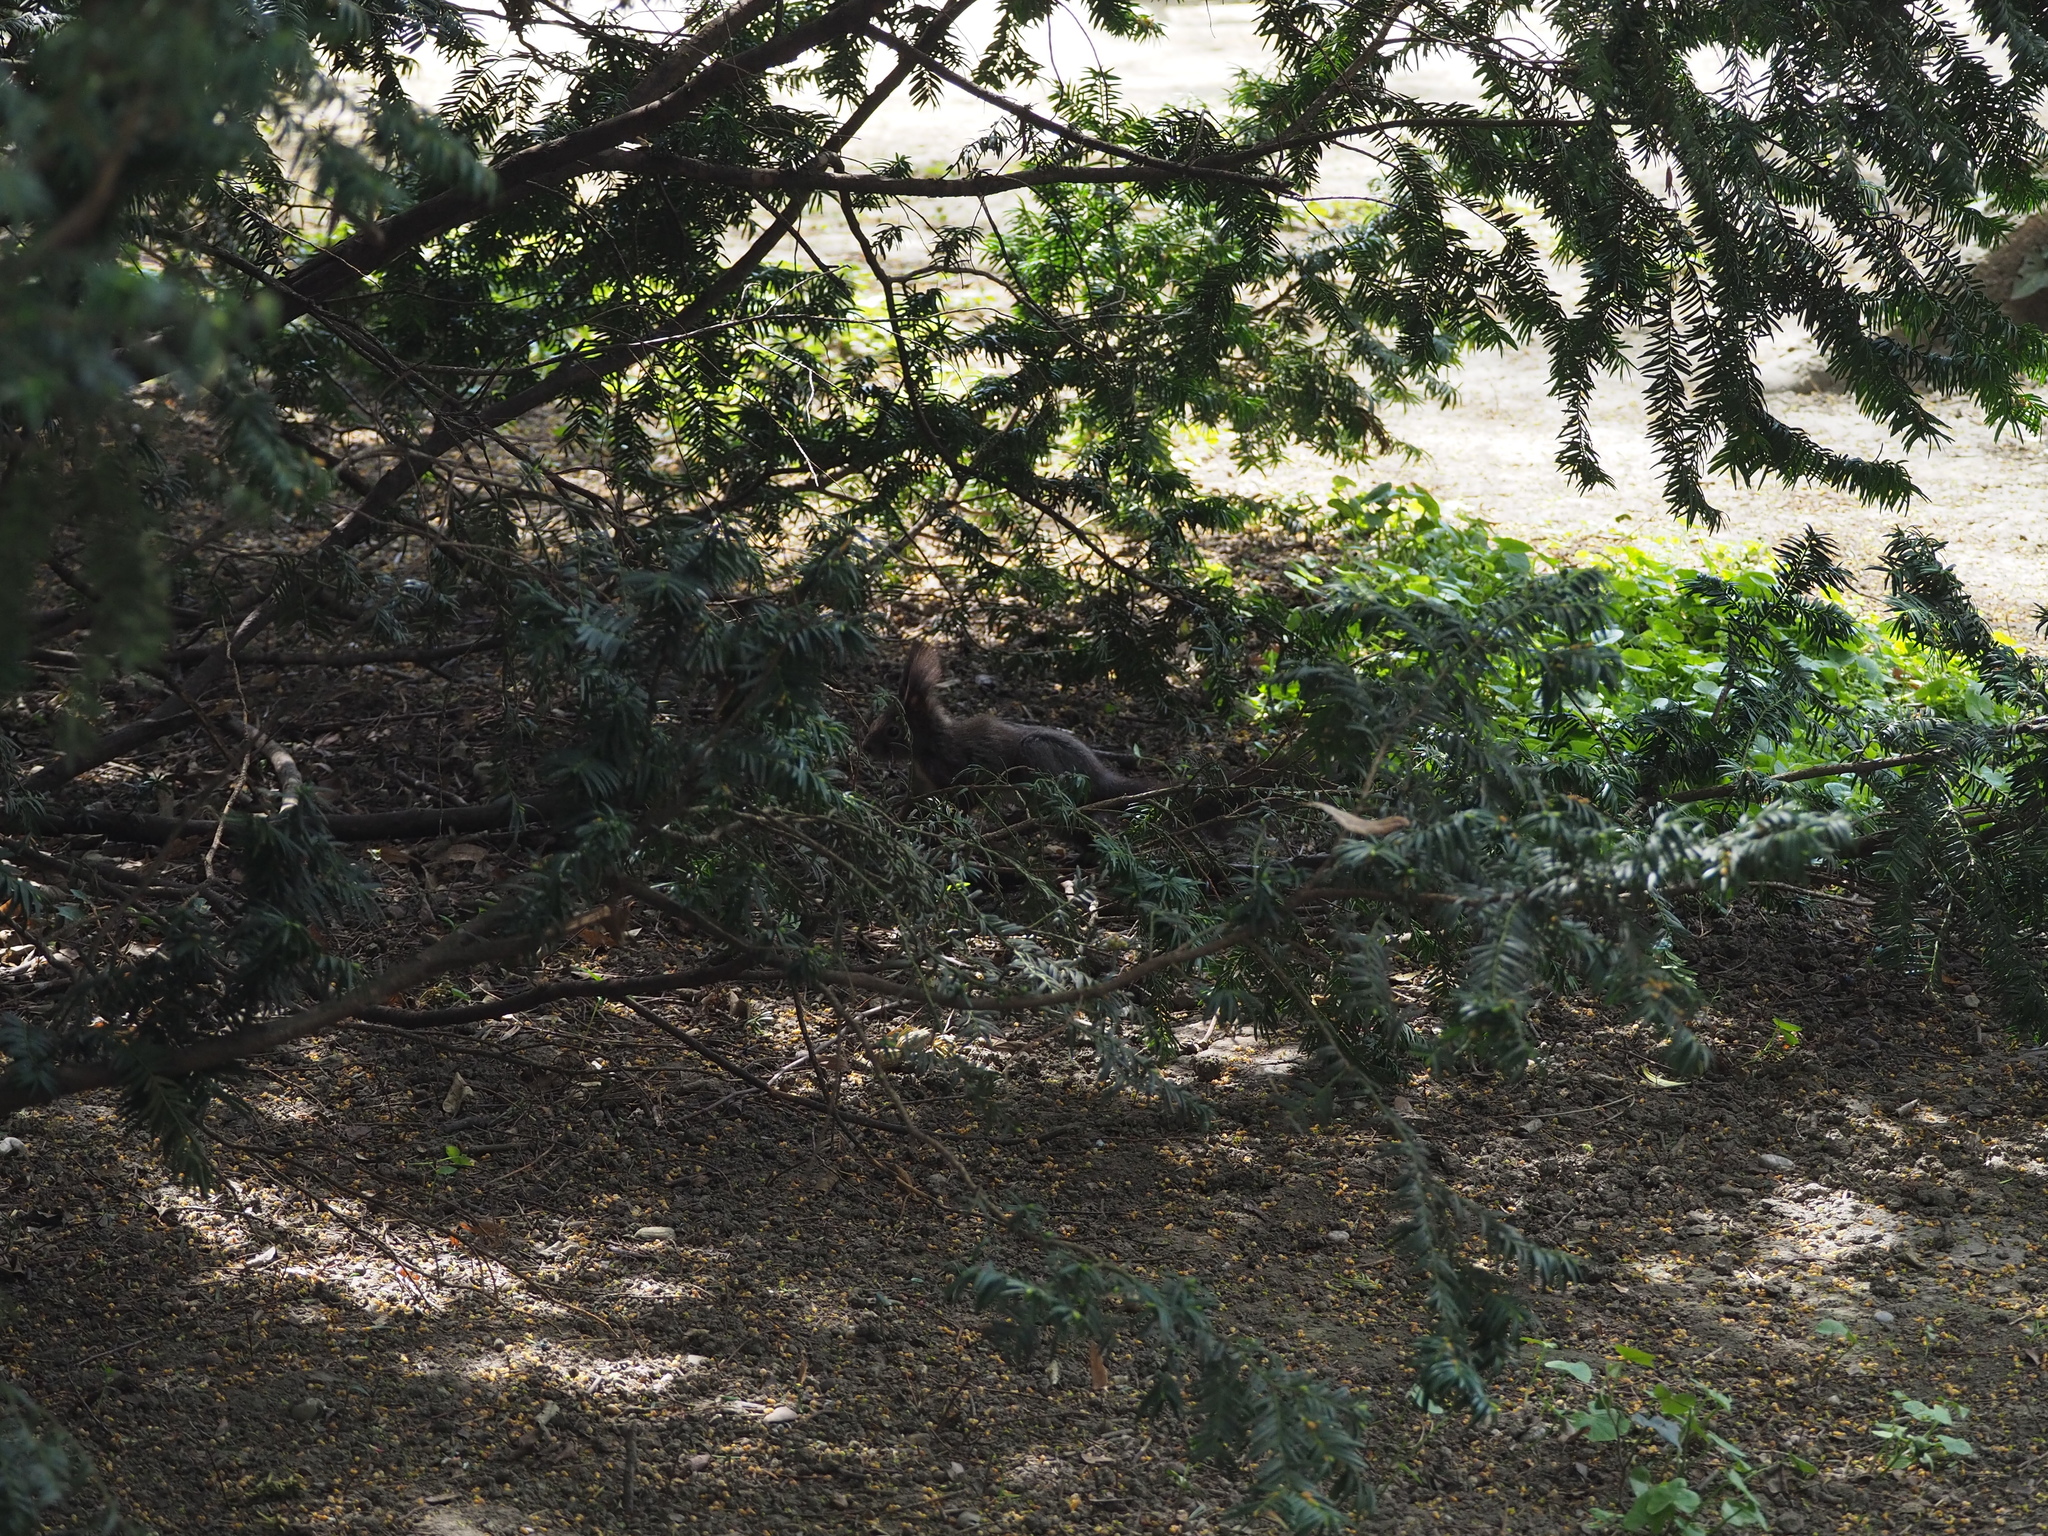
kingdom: Animalia
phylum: Chordata
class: Mammalia
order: Rodentia
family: Sciuridae
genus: Sciurus
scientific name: Sciurus vulgaris
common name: Eurasian red squirrel
